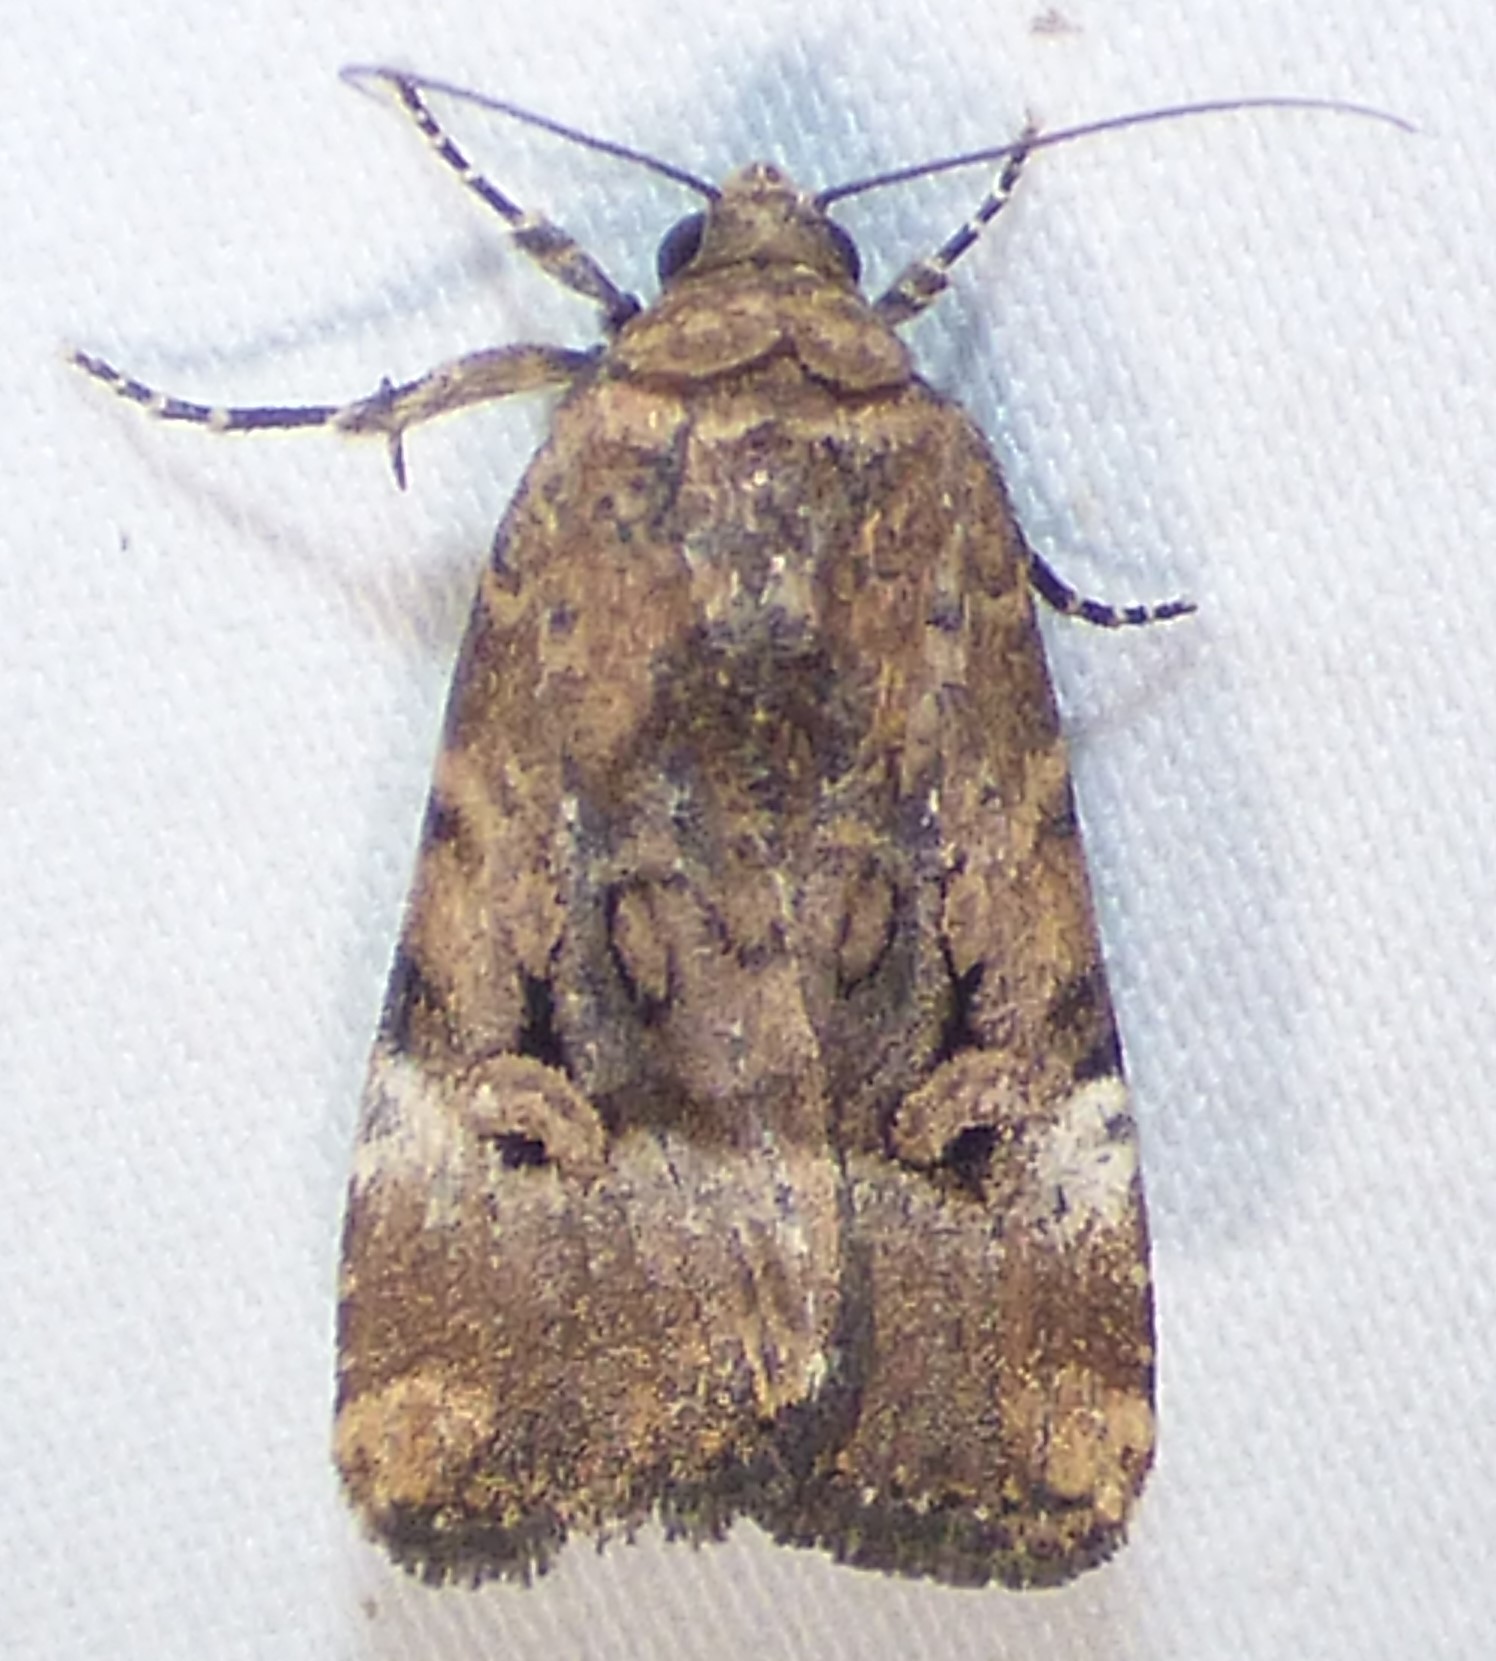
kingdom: Animalia
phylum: Arthropoda
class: Insecta
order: Lepidoptera
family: Noctuidae
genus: Elaphria
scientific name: Elaphria chalcedonia
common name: Chalcedony midget
